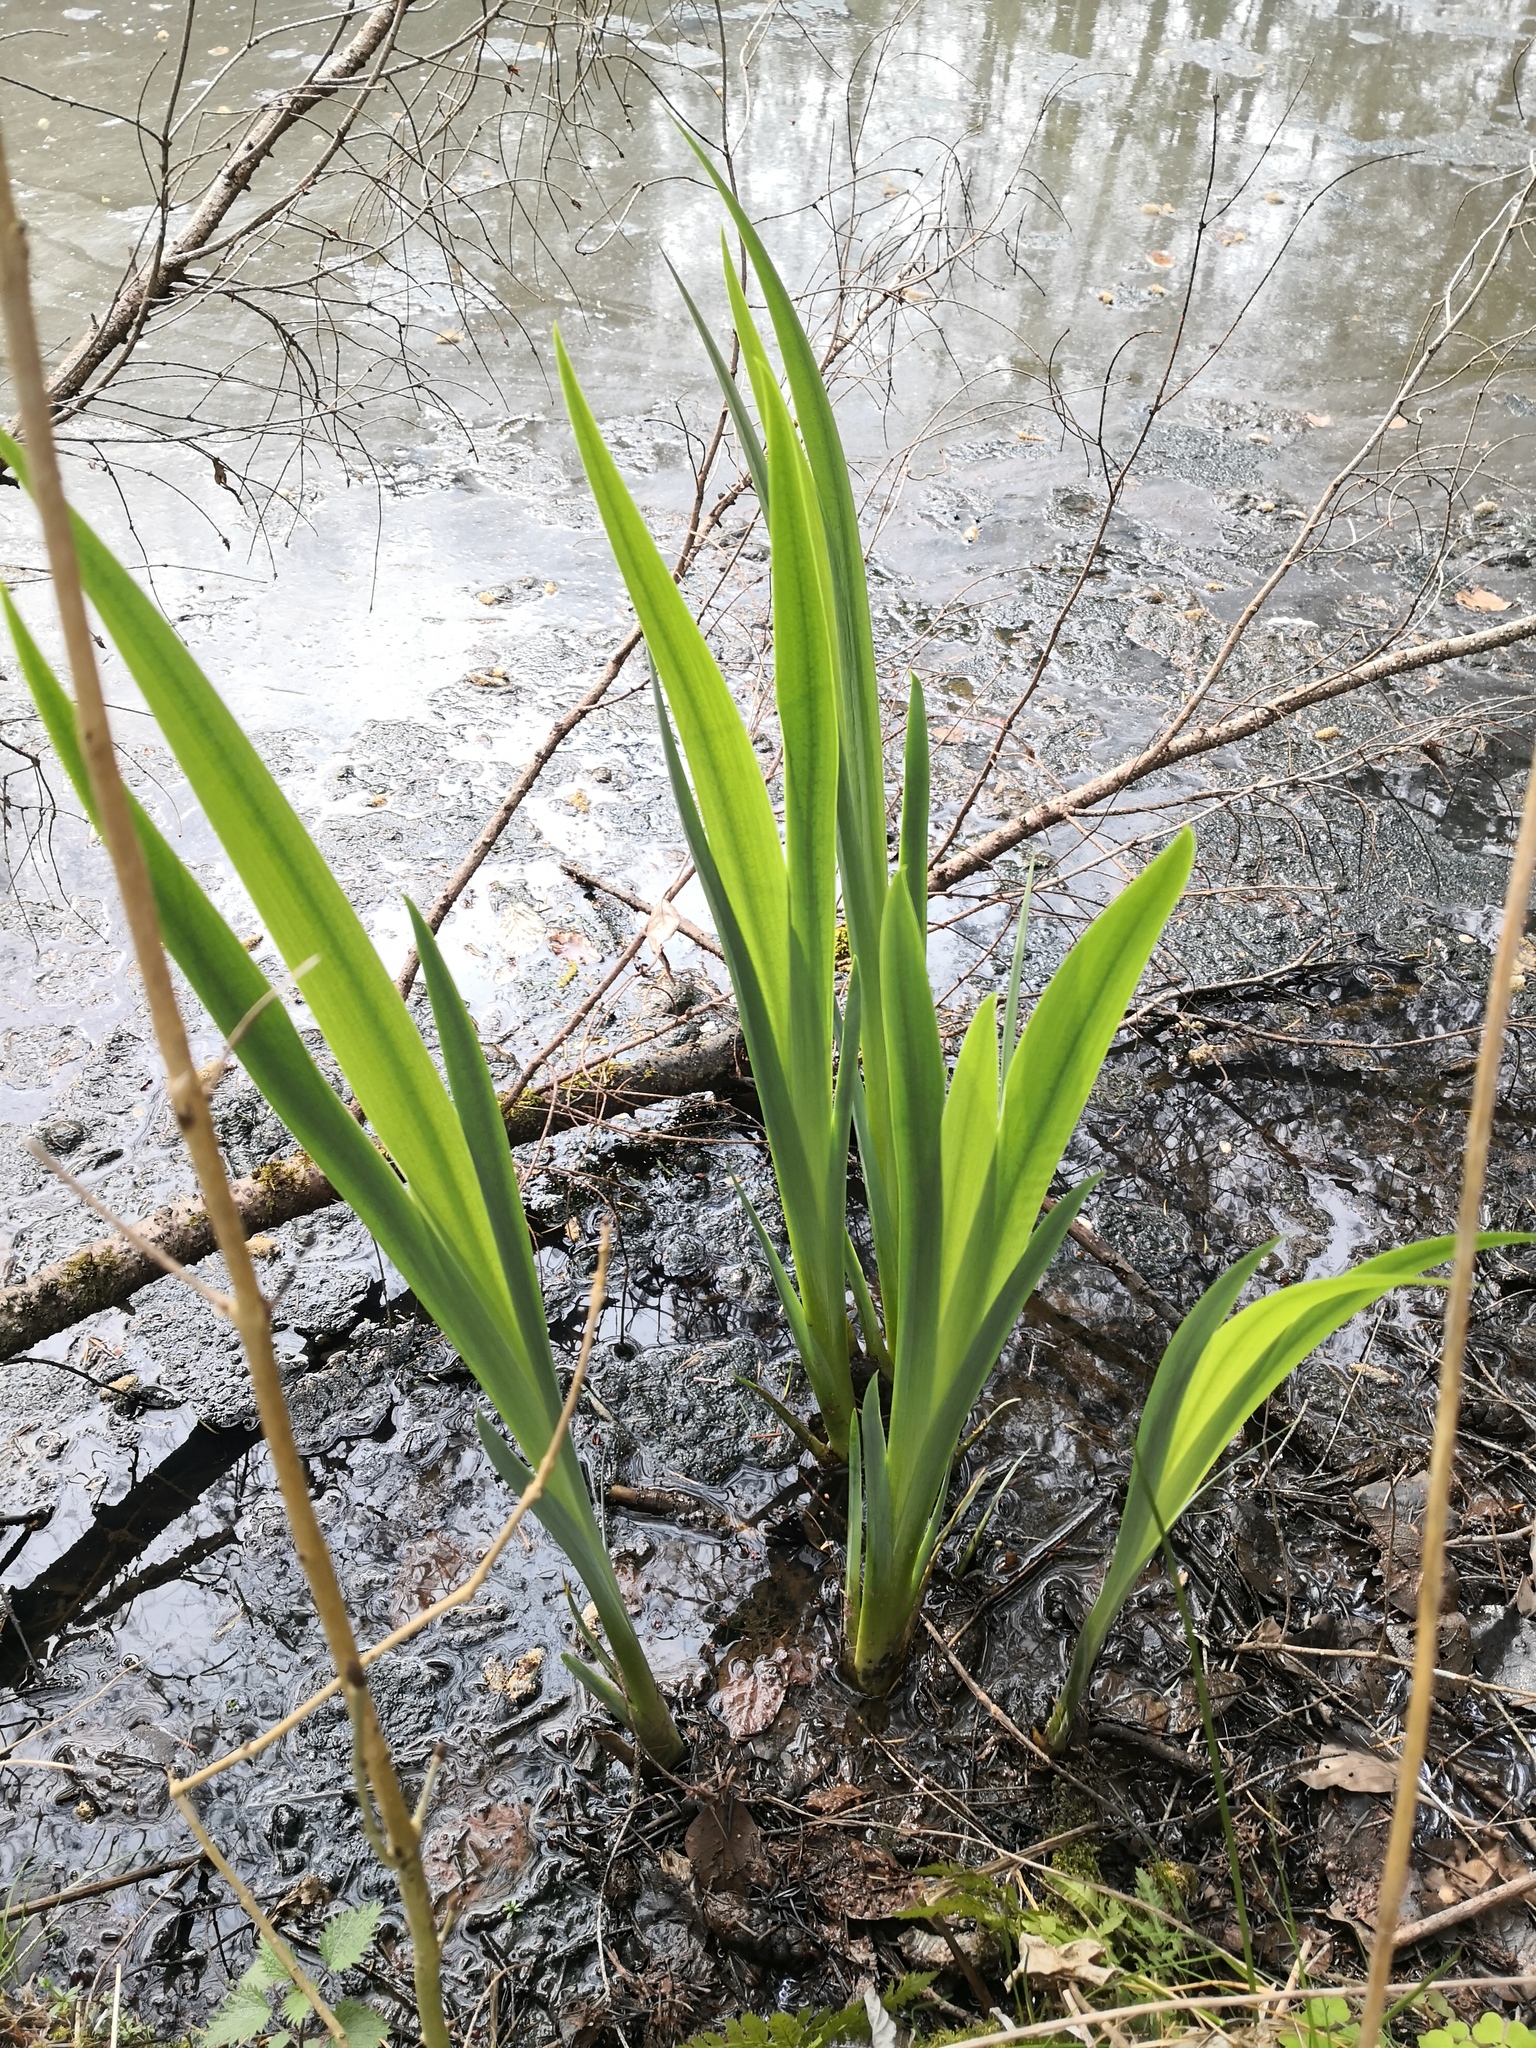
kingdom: Plantae
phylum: Tracheophyta
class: Liliopsida
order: Asparagales
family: Iridaceae
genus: Iris
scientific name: Iris pseudacorus
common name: Yellow flag
